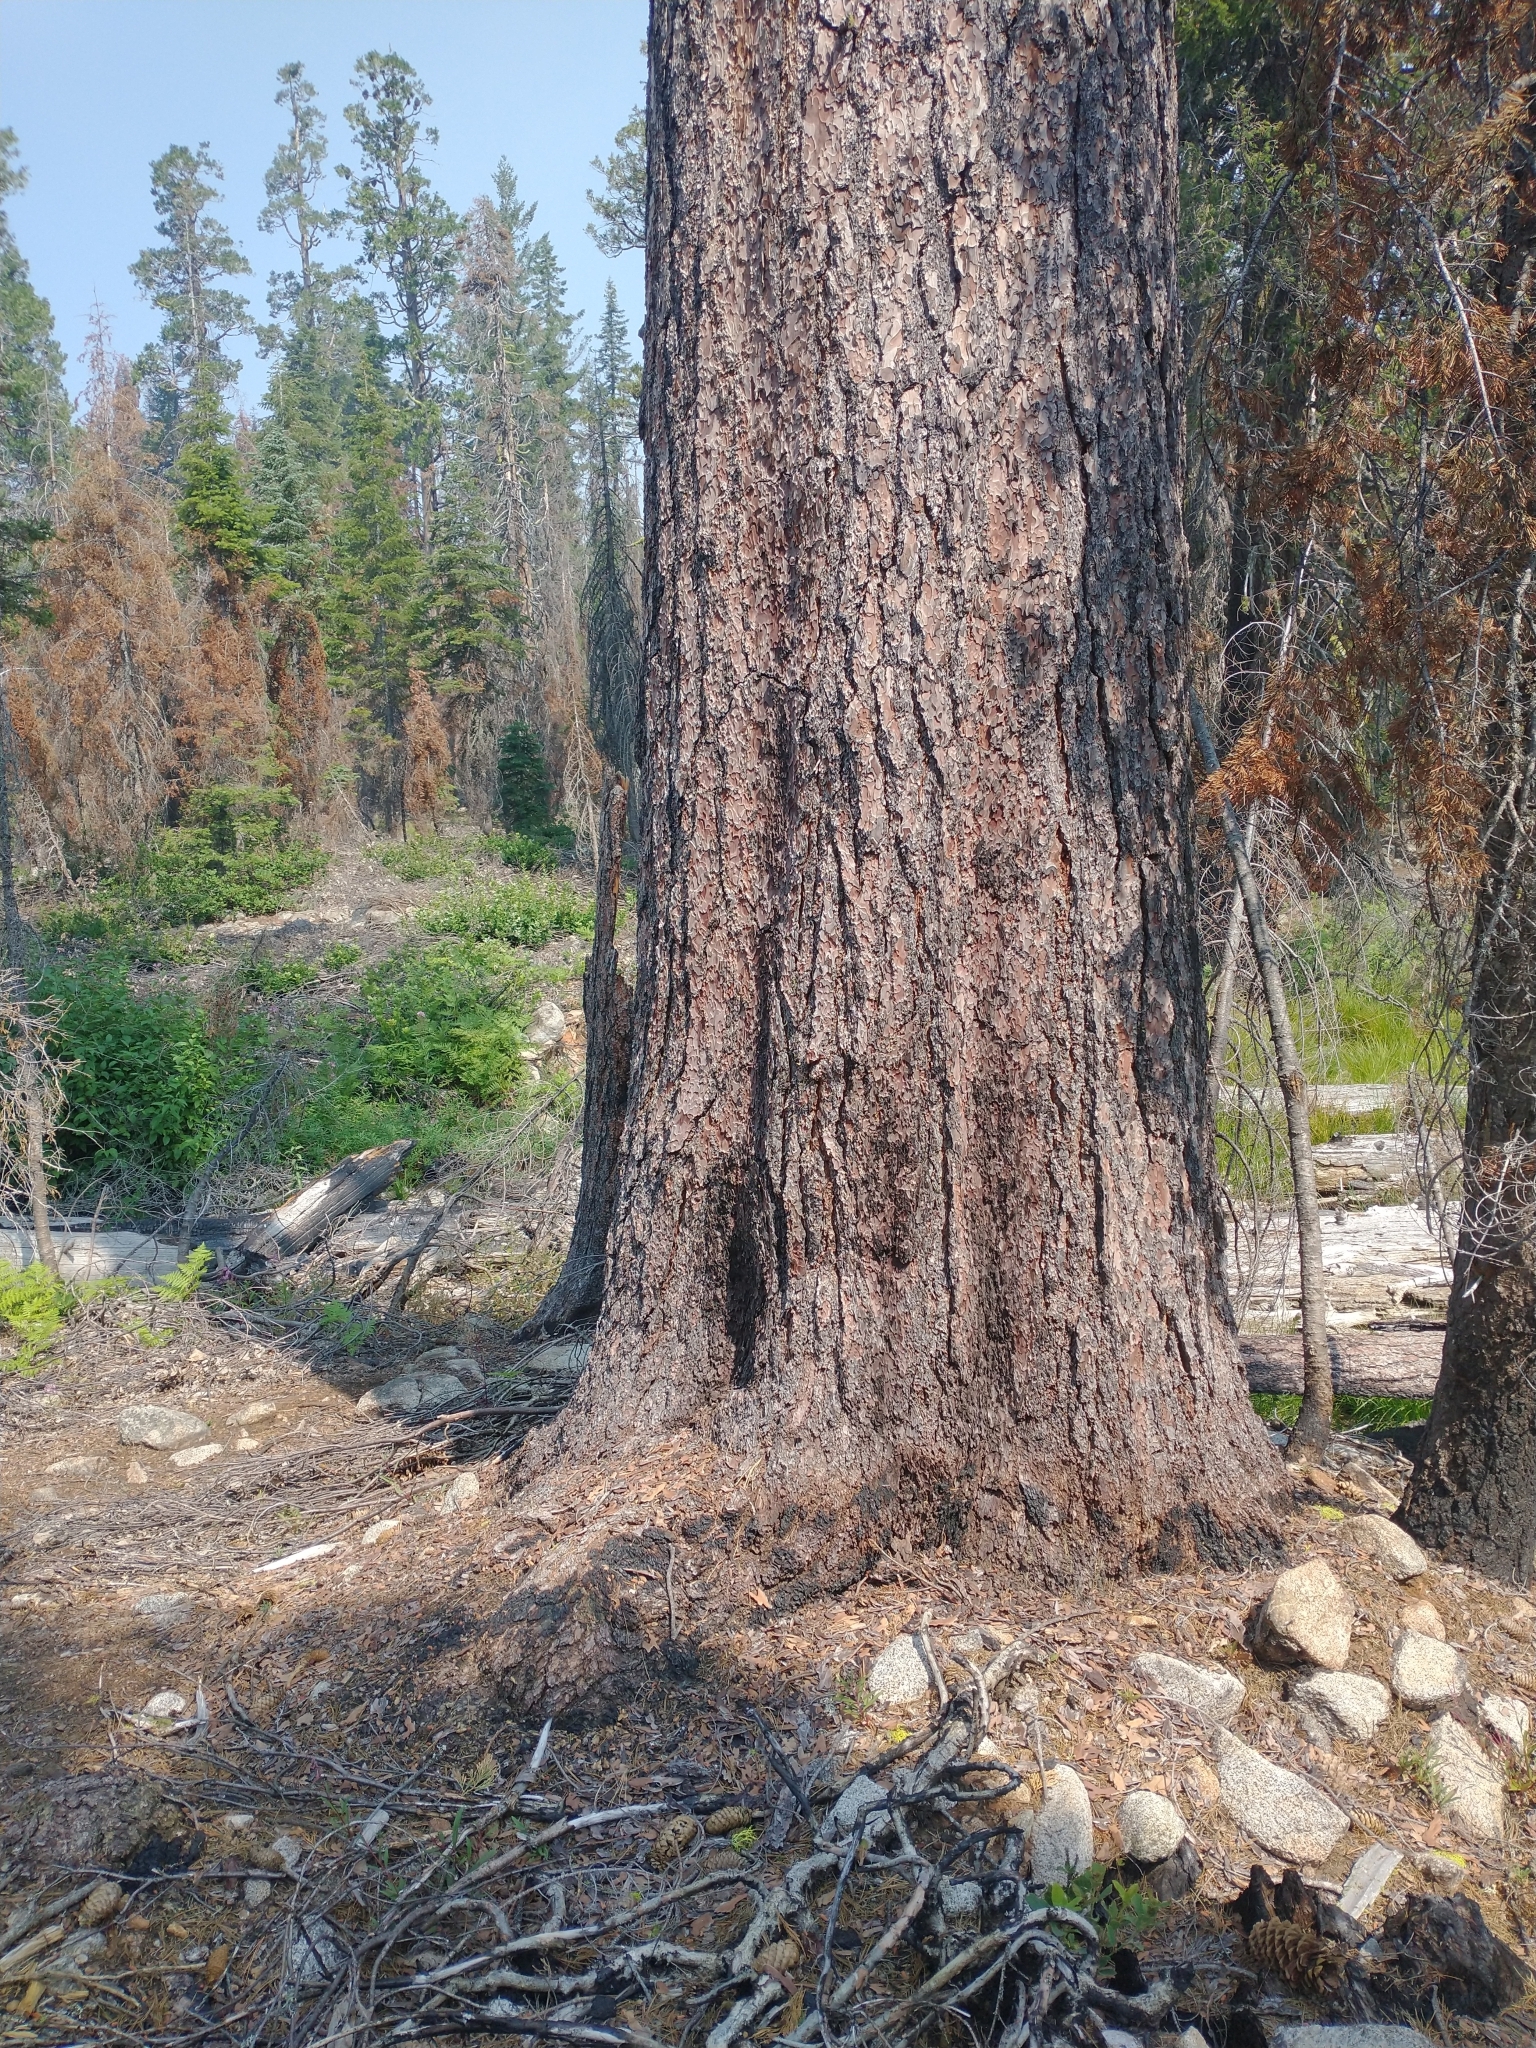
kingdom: Plantae
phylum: Tracheophyta
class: Pinopsida
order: Pinales
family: Pinaceae
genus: Pinus
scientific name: Pinus lambertiana
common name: Sugar pine
